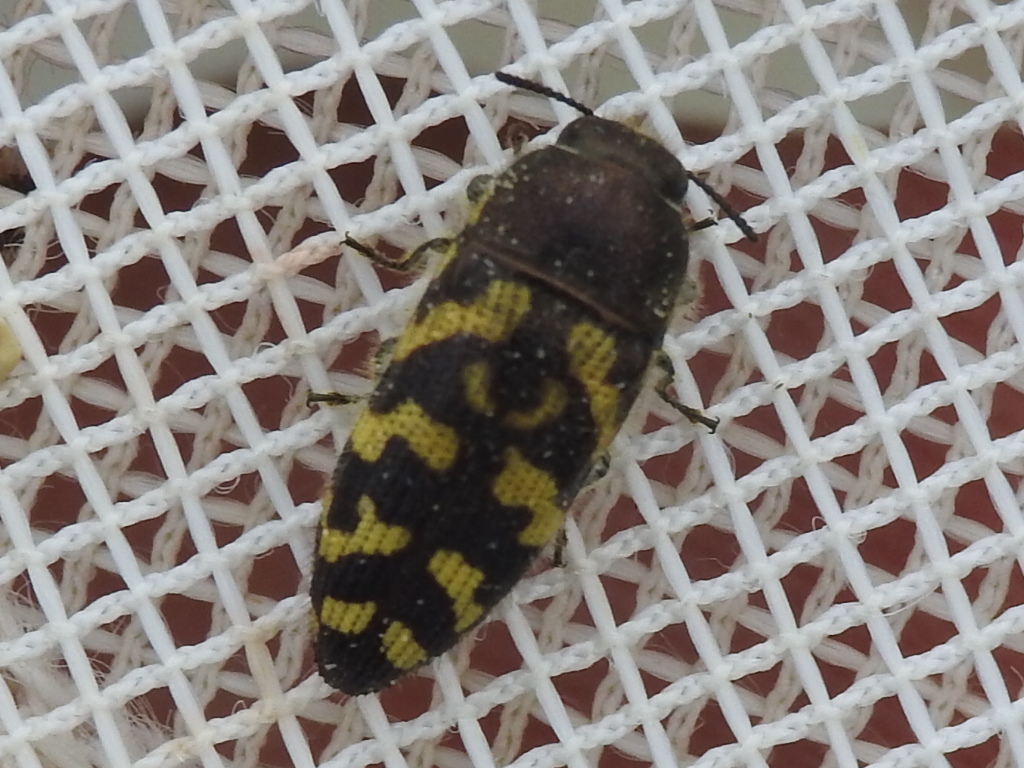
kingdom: Animalia
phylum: Arthropoda
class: Insecta
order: Coleoptera
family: Buprestidae
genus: Acmaeodera
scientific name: Acmaeodera mixta
